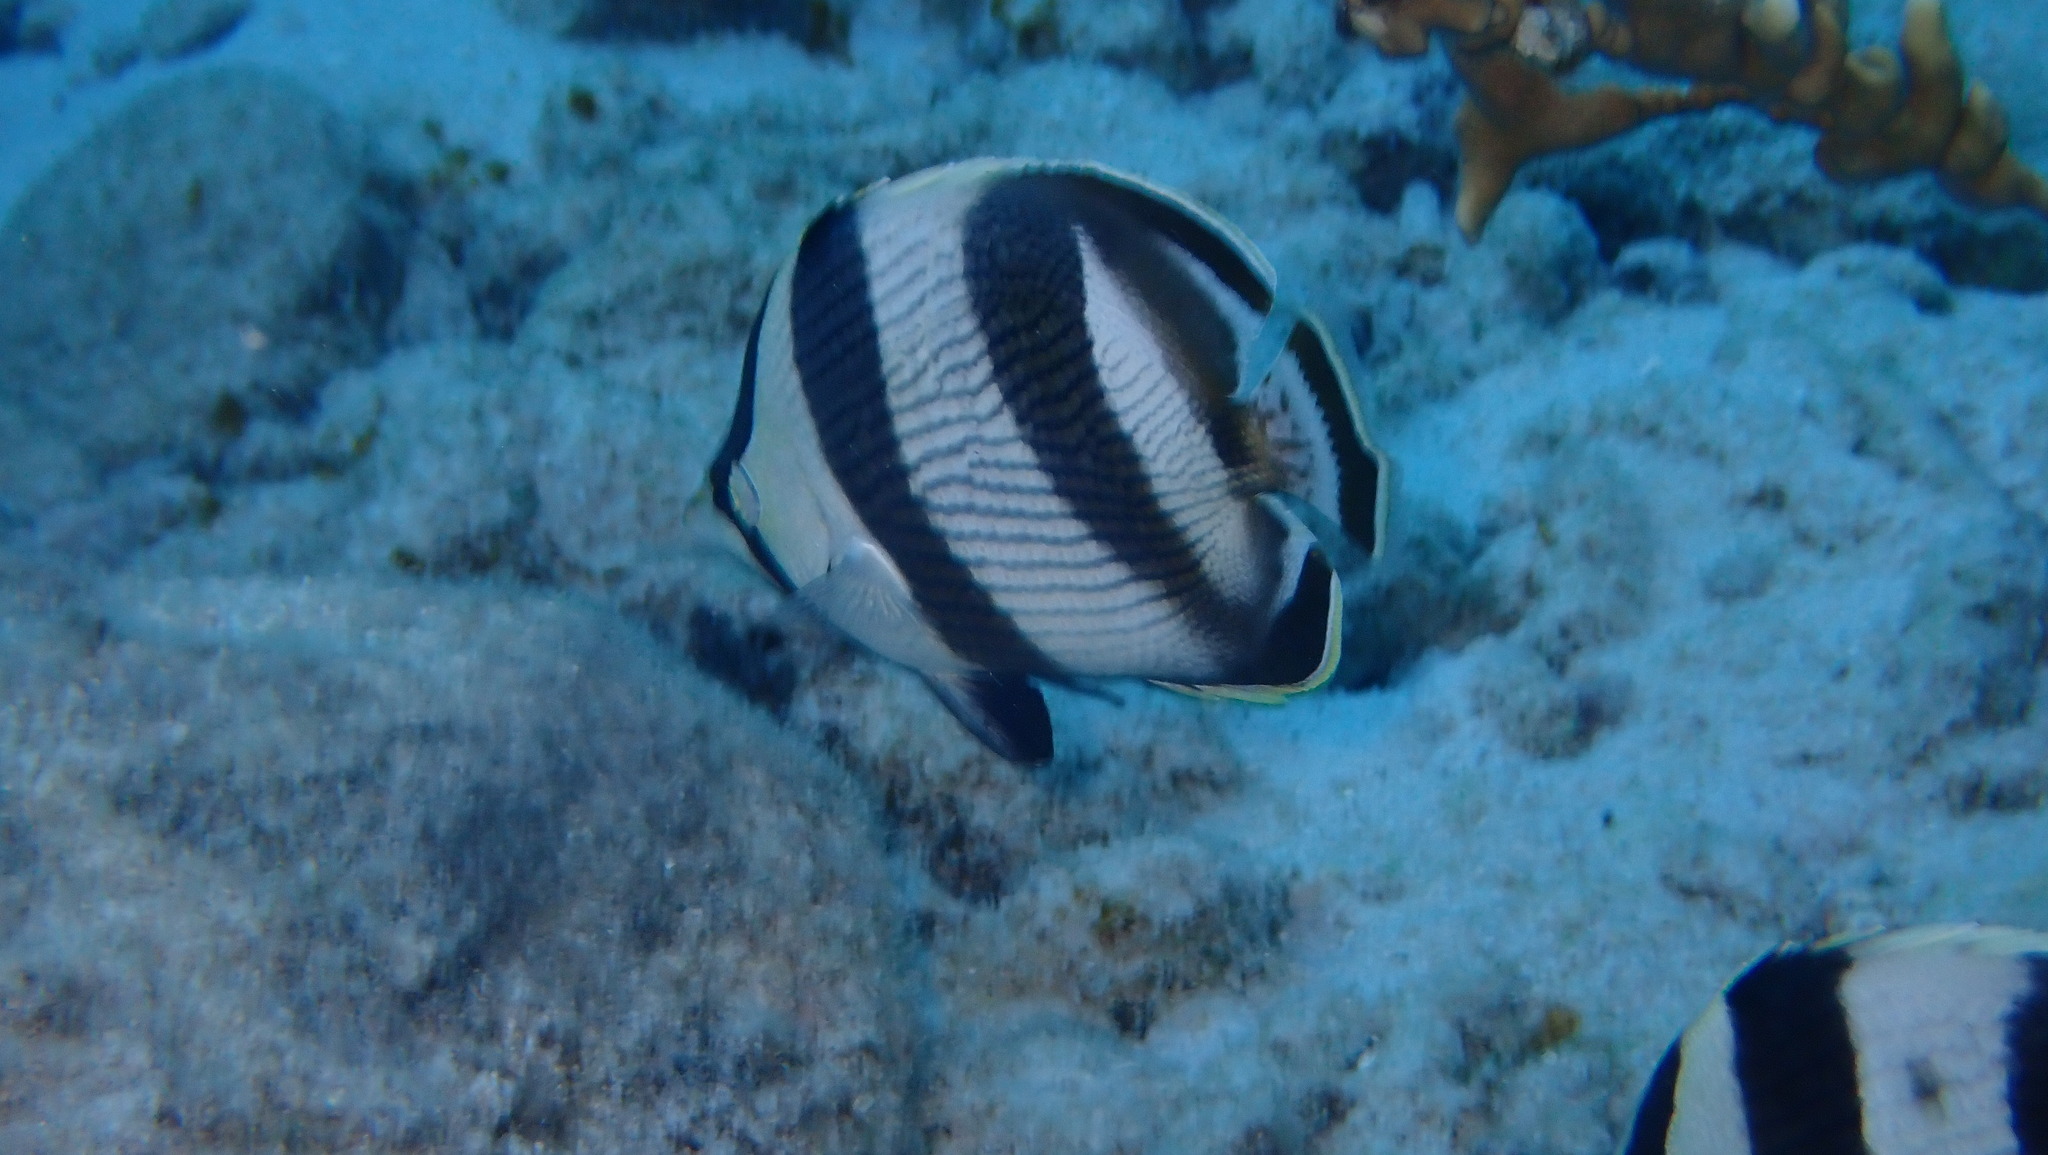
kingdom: Animalia
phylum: Chordata
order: Perciformes
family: Chaetodontidae
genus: Chaetodon
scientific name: Chaetodon striatus
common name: Banded butterflyfish
